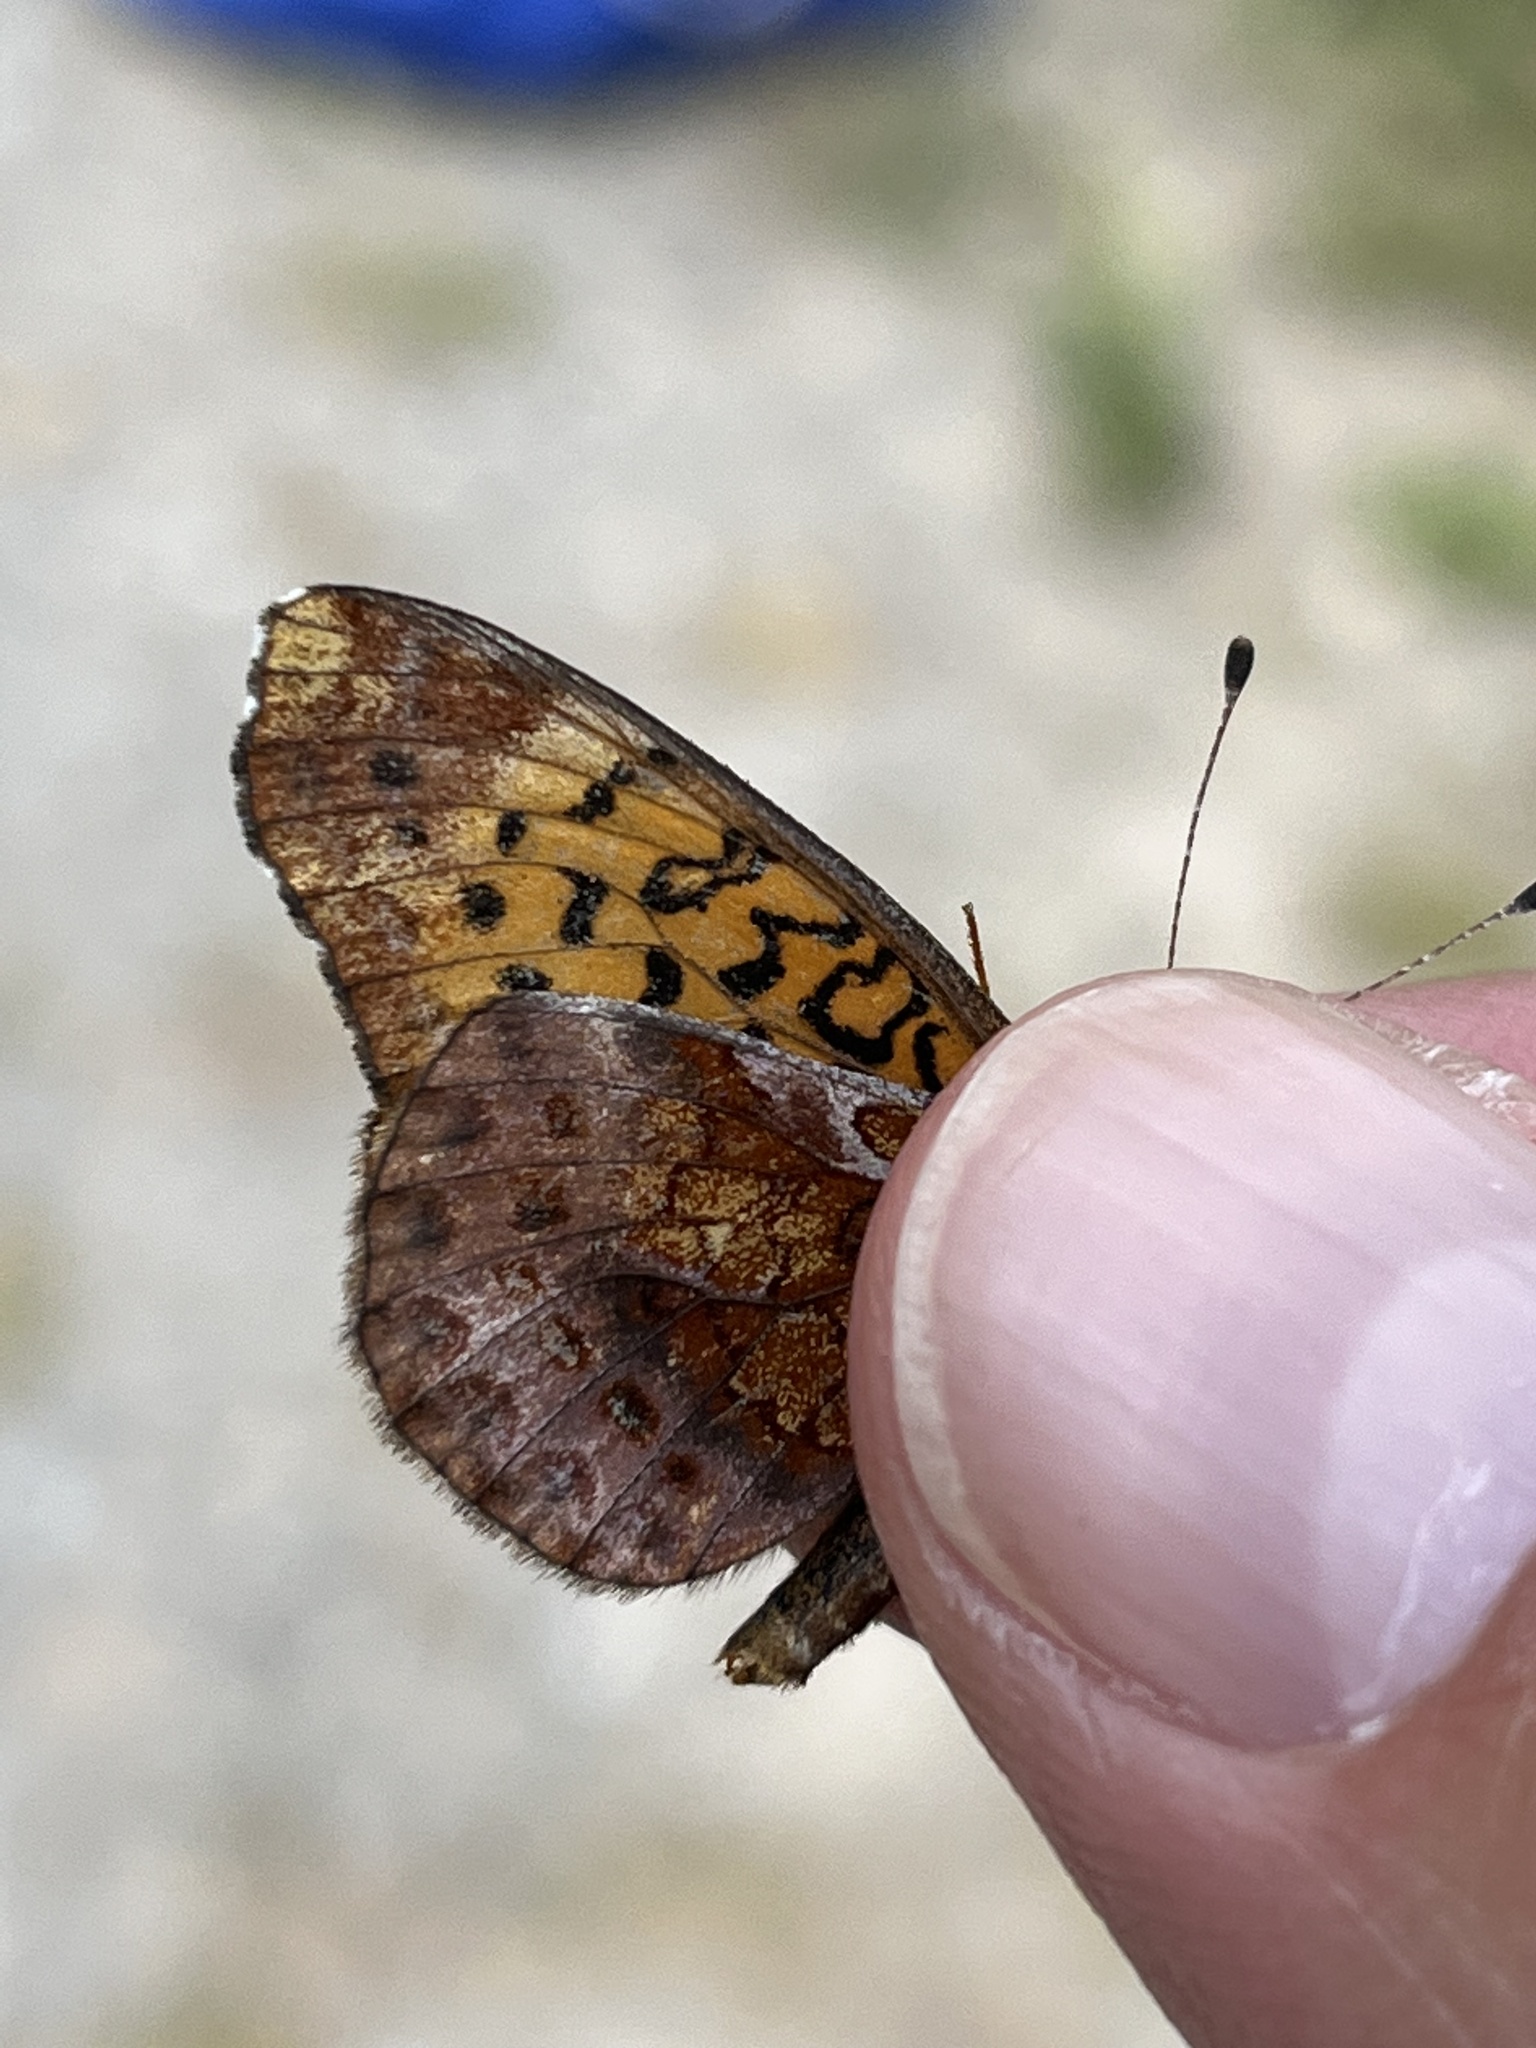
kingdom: Animalia
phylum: Arthropoda
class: Insecta
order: Lepidoptera
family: Nymphalidae
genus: Clossiana
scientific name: Clossiana toddi
